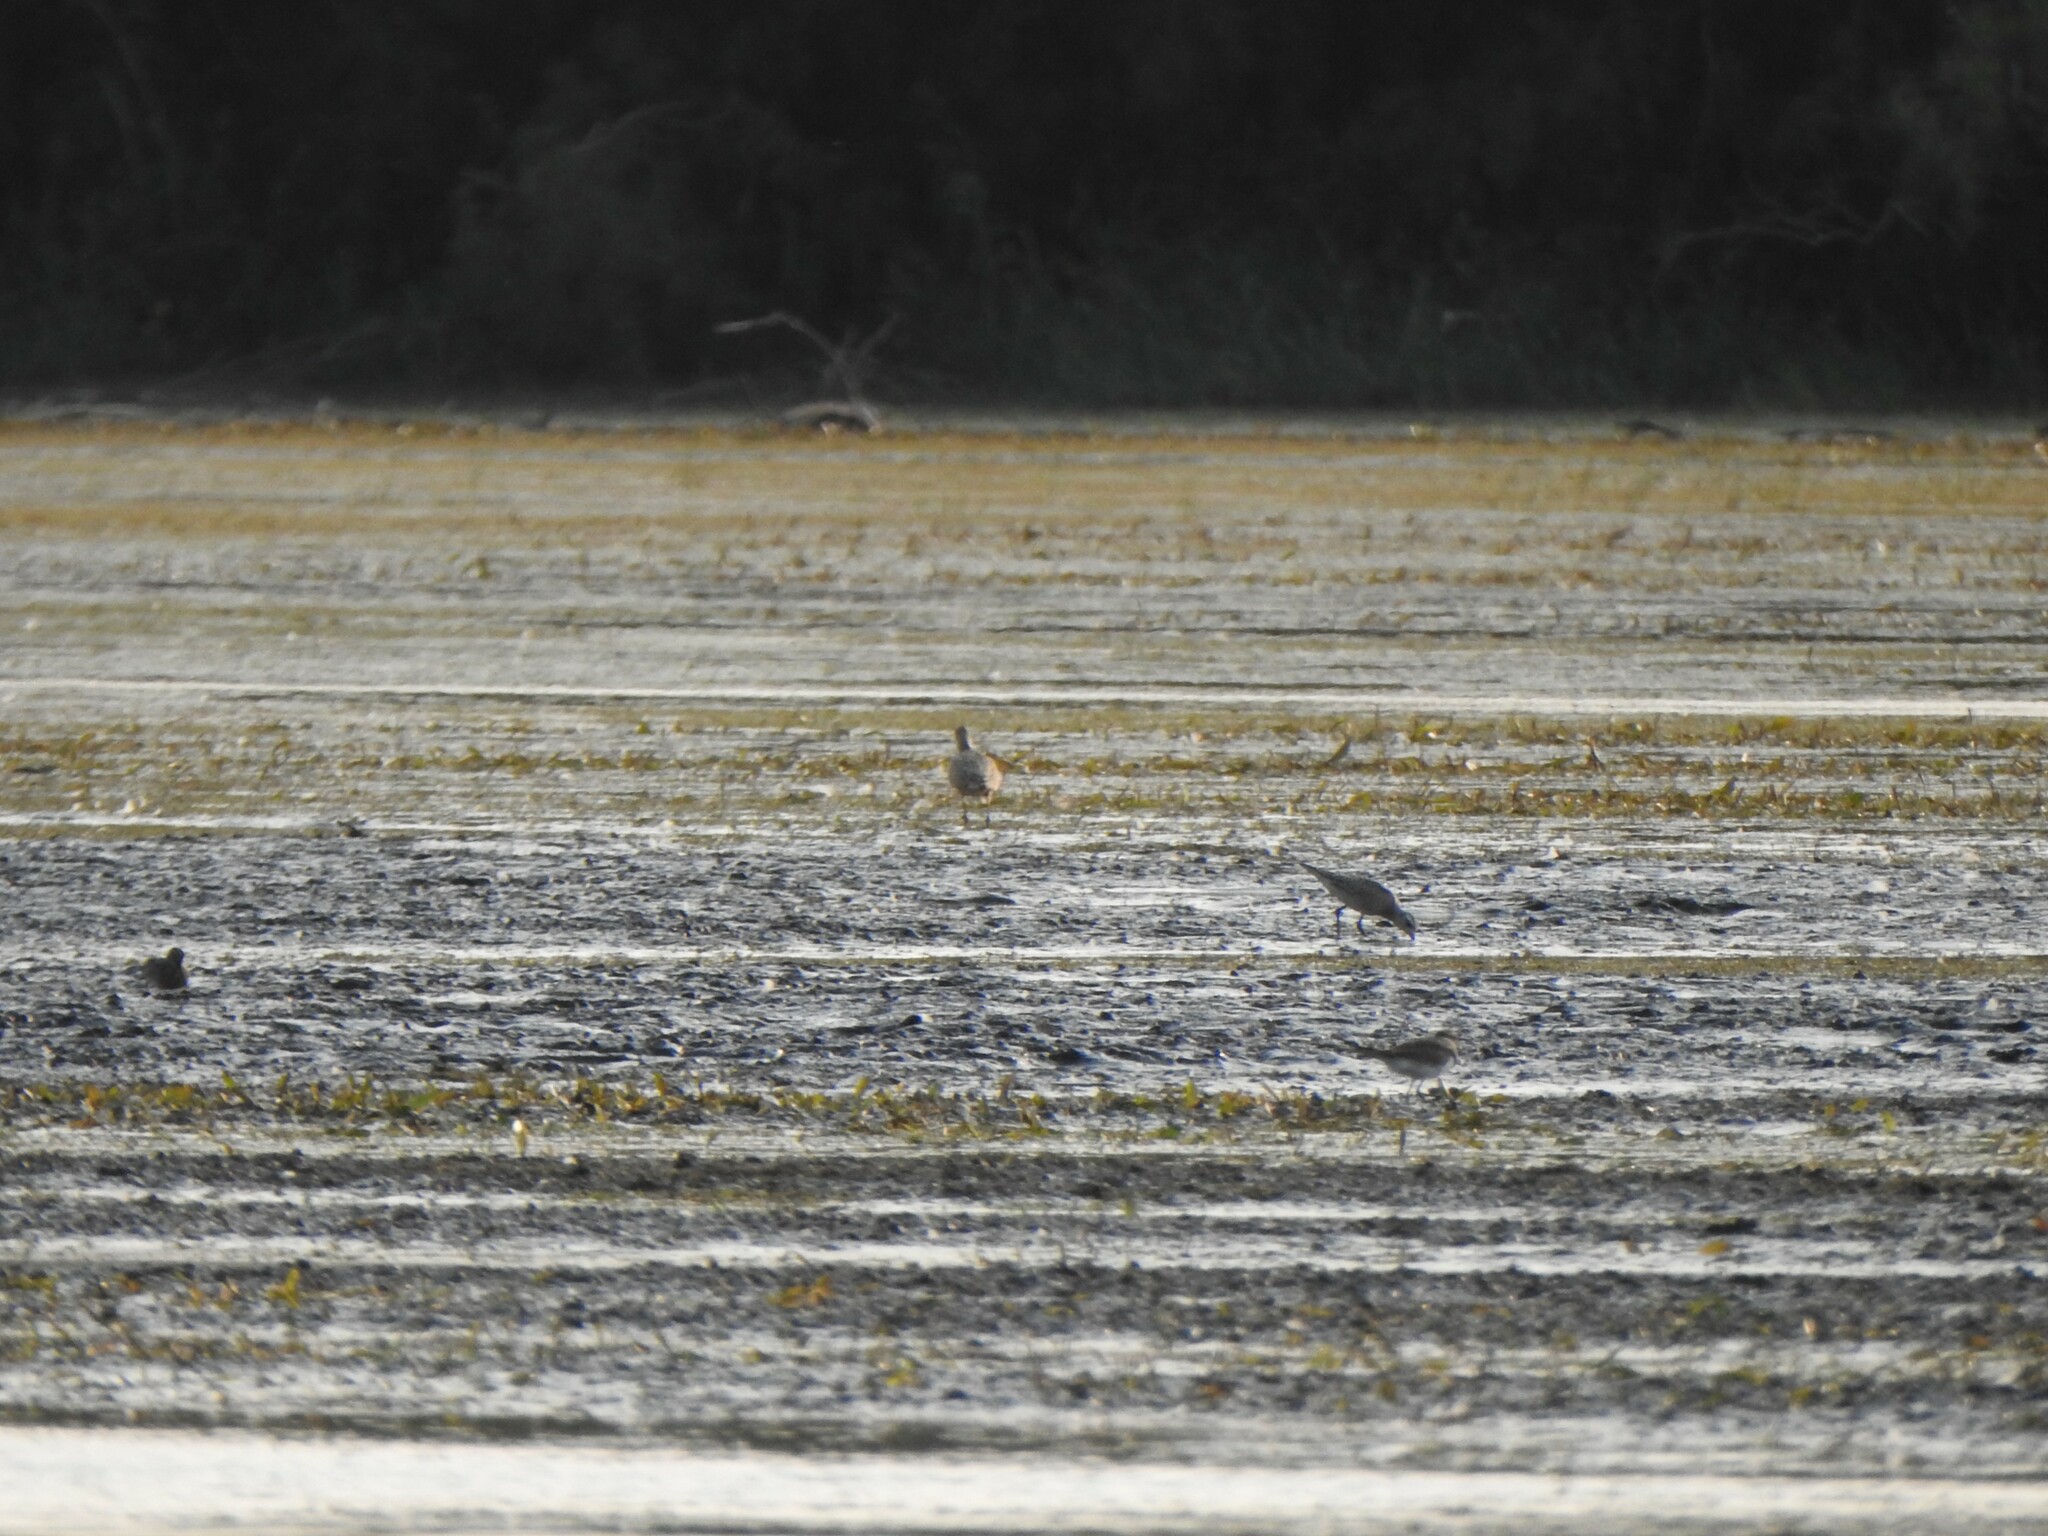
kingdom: Animalia
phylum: Chordata
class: Aves
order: Charadriiformes
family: Charadriidae
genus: Pluvialis
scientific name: Pluvialis dominica
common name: American golden plover
